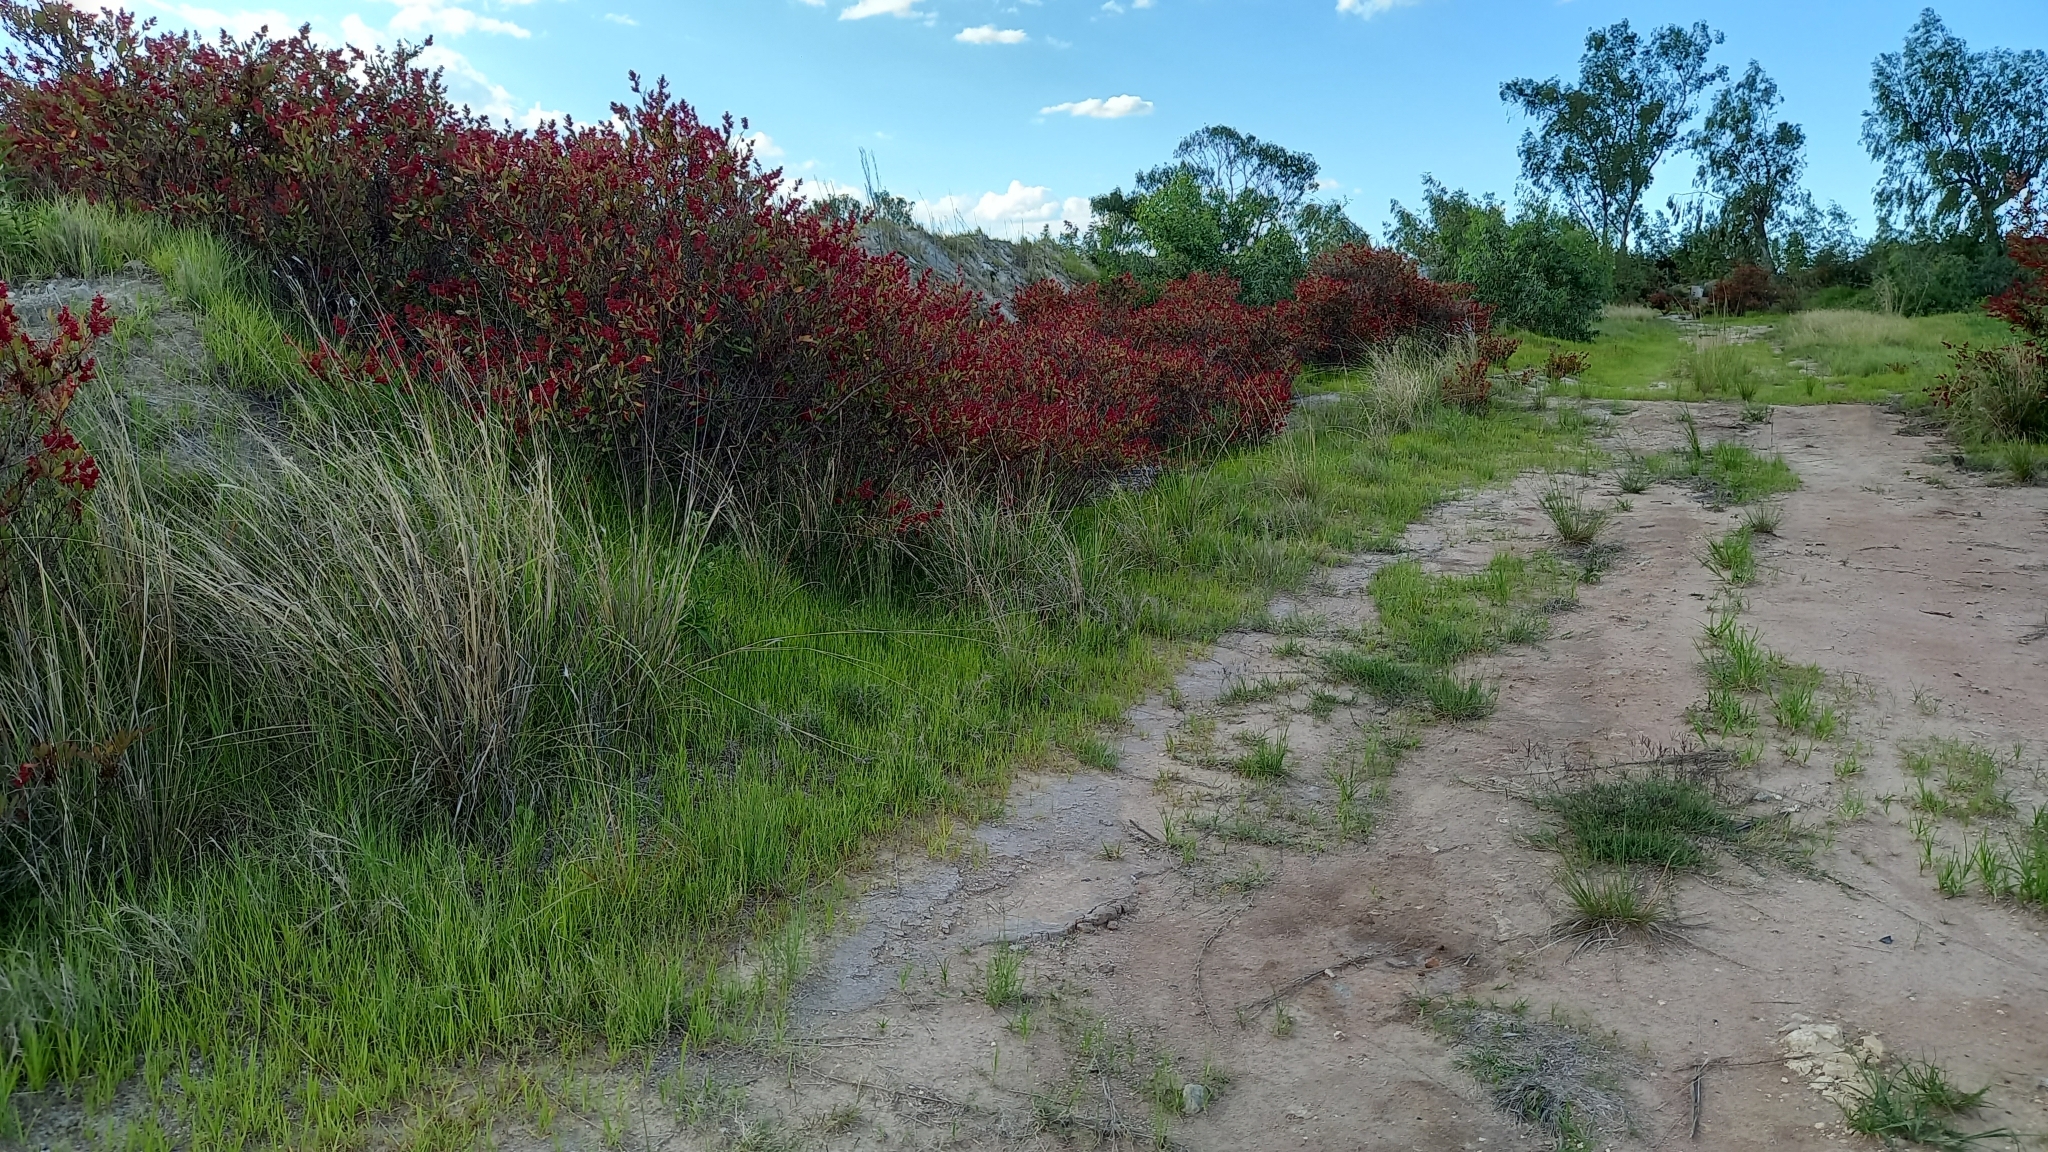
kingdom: Plantae
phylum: Tracheophyta
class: Magnoliopsida
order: Caryophyllales
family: Polygonaceae
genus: Rumex
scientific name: Rumex usambarensis
